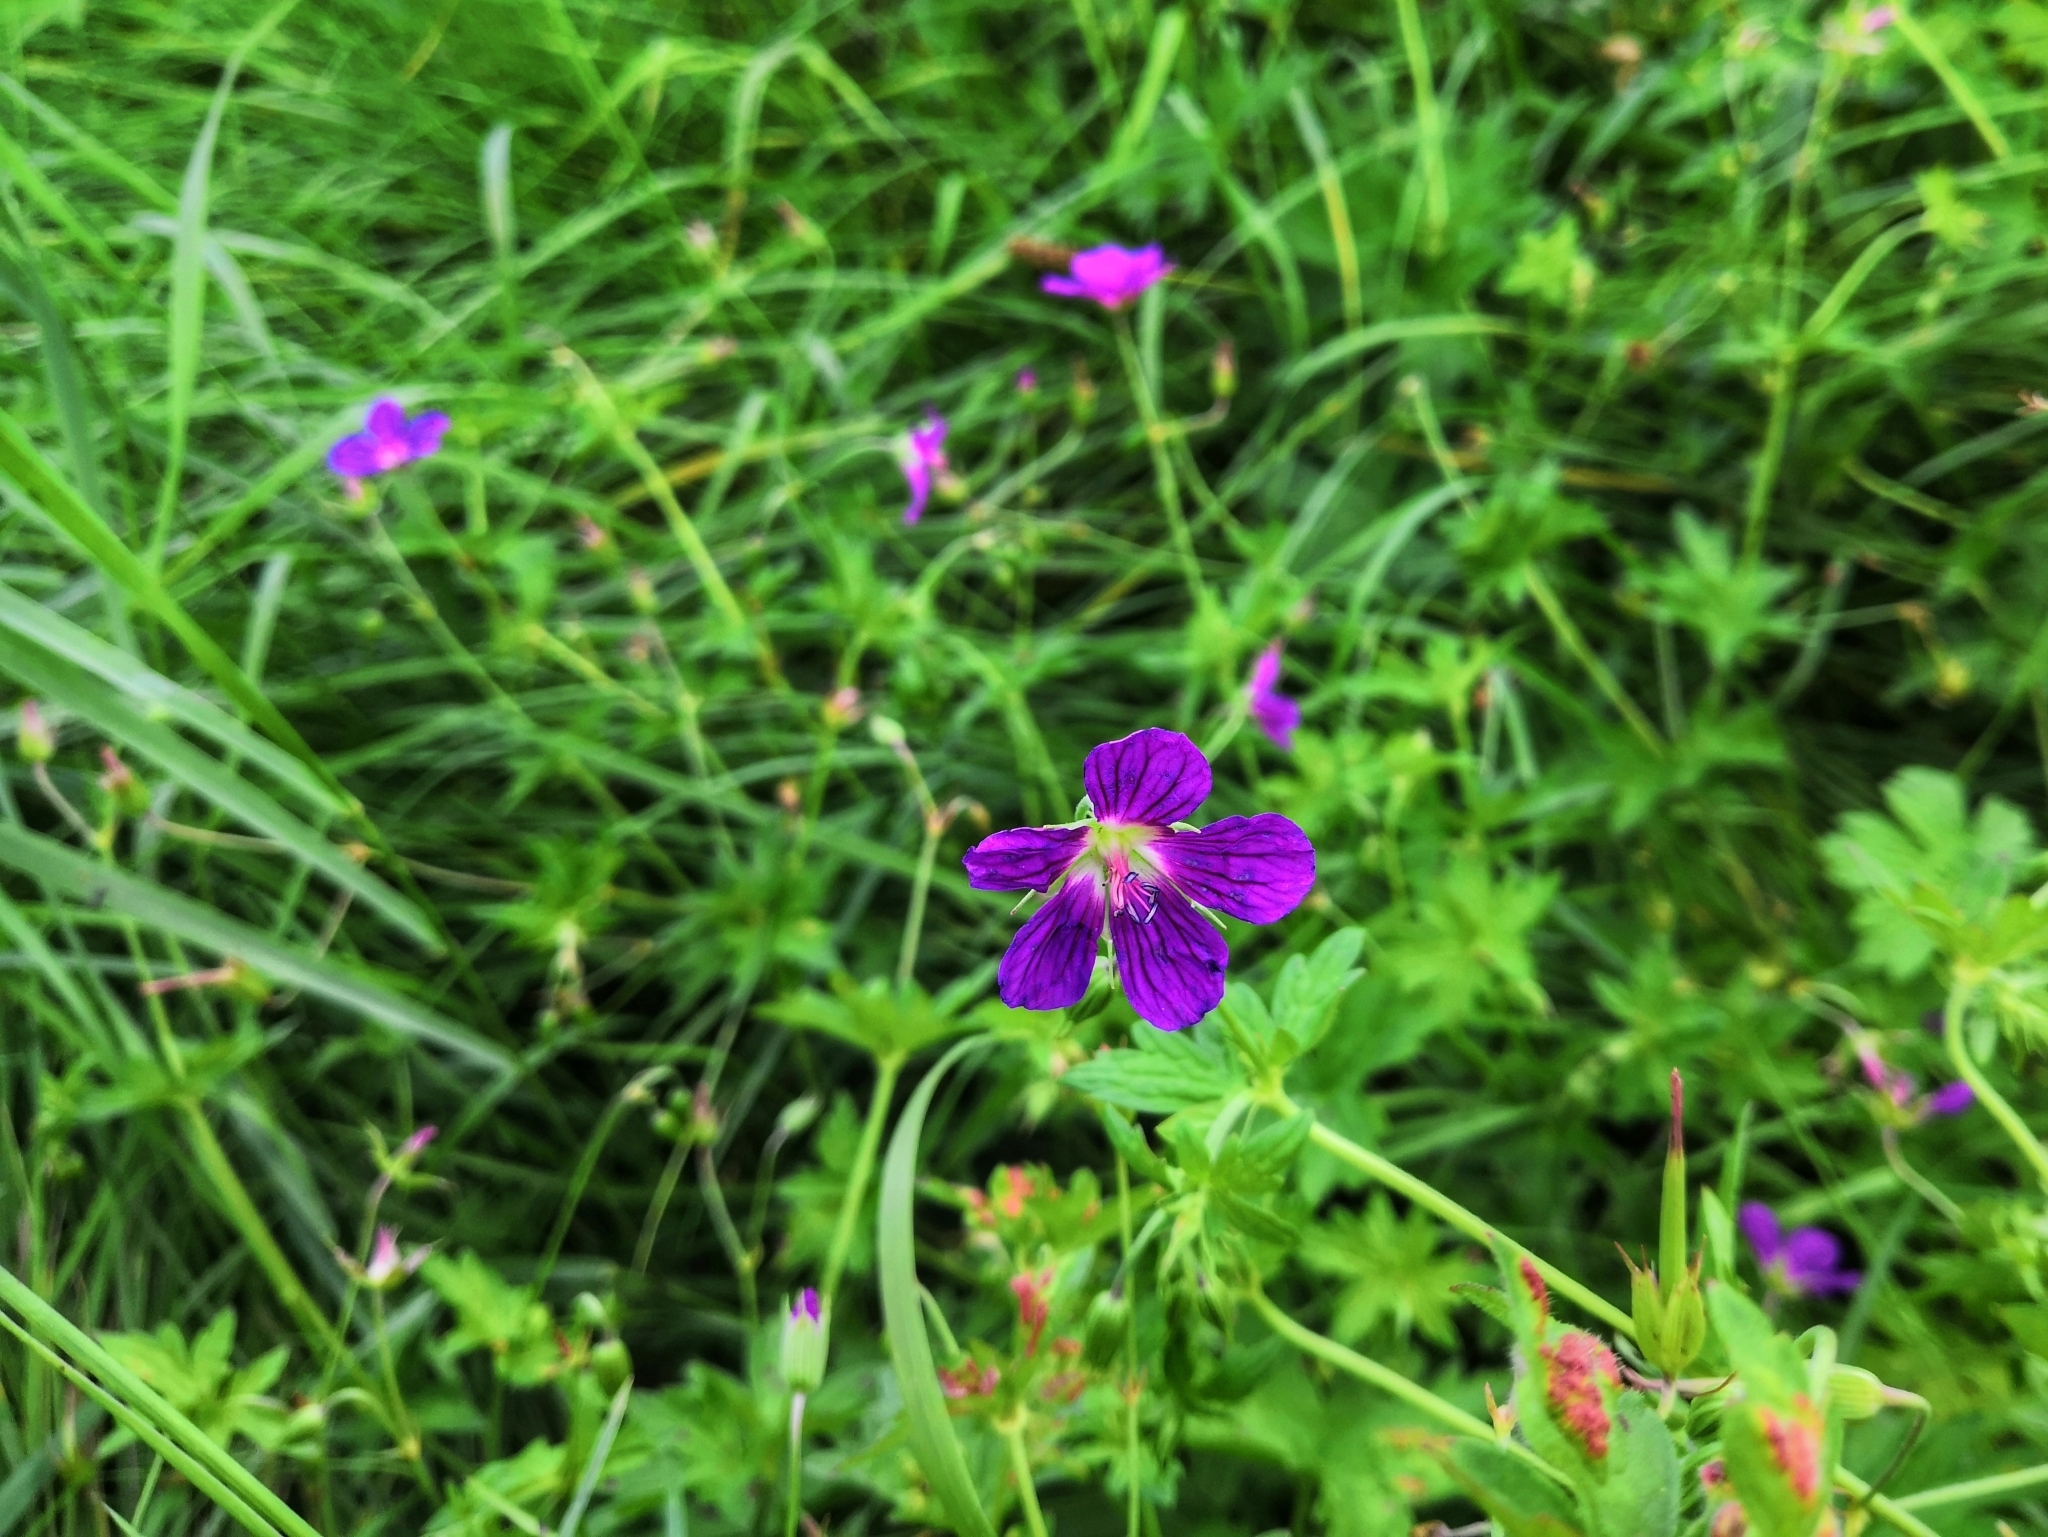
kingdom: Plantae
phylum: Tracheophyta
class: Magnoliopsida
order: Geraniales
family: Geraniaceae
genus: Geranium
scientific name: Geranium palustre
